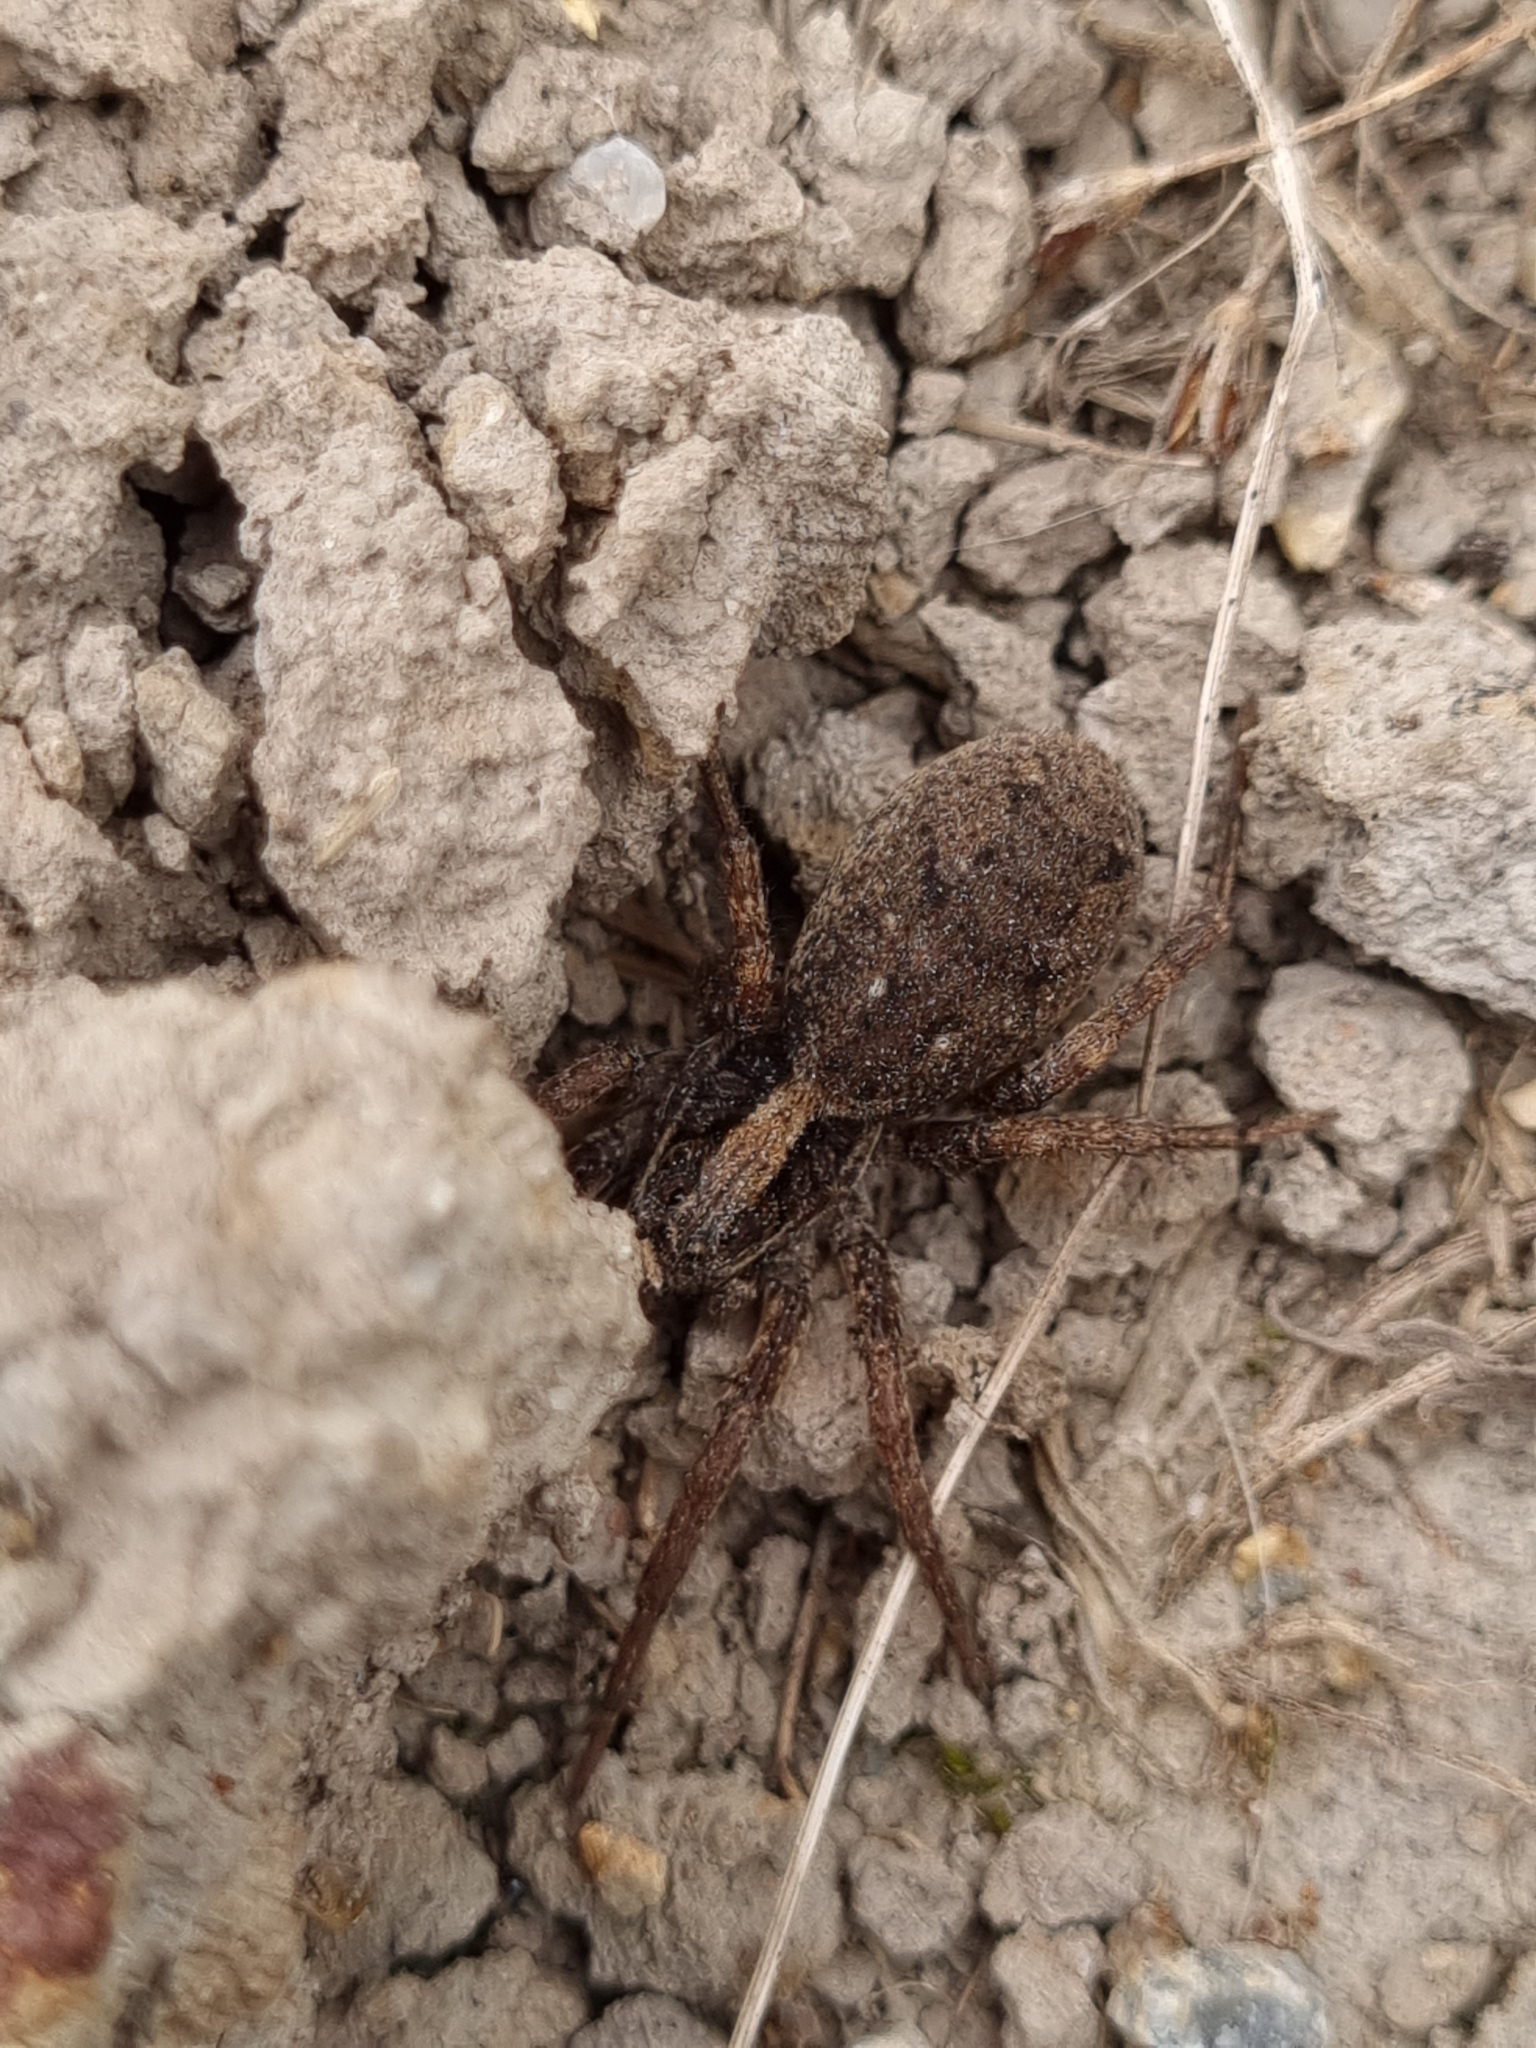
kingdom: Animalia
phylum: Arthropoda
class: Arachnida
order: Araneae
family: Lycosidae
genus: Venatrix
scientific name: Venatrix
